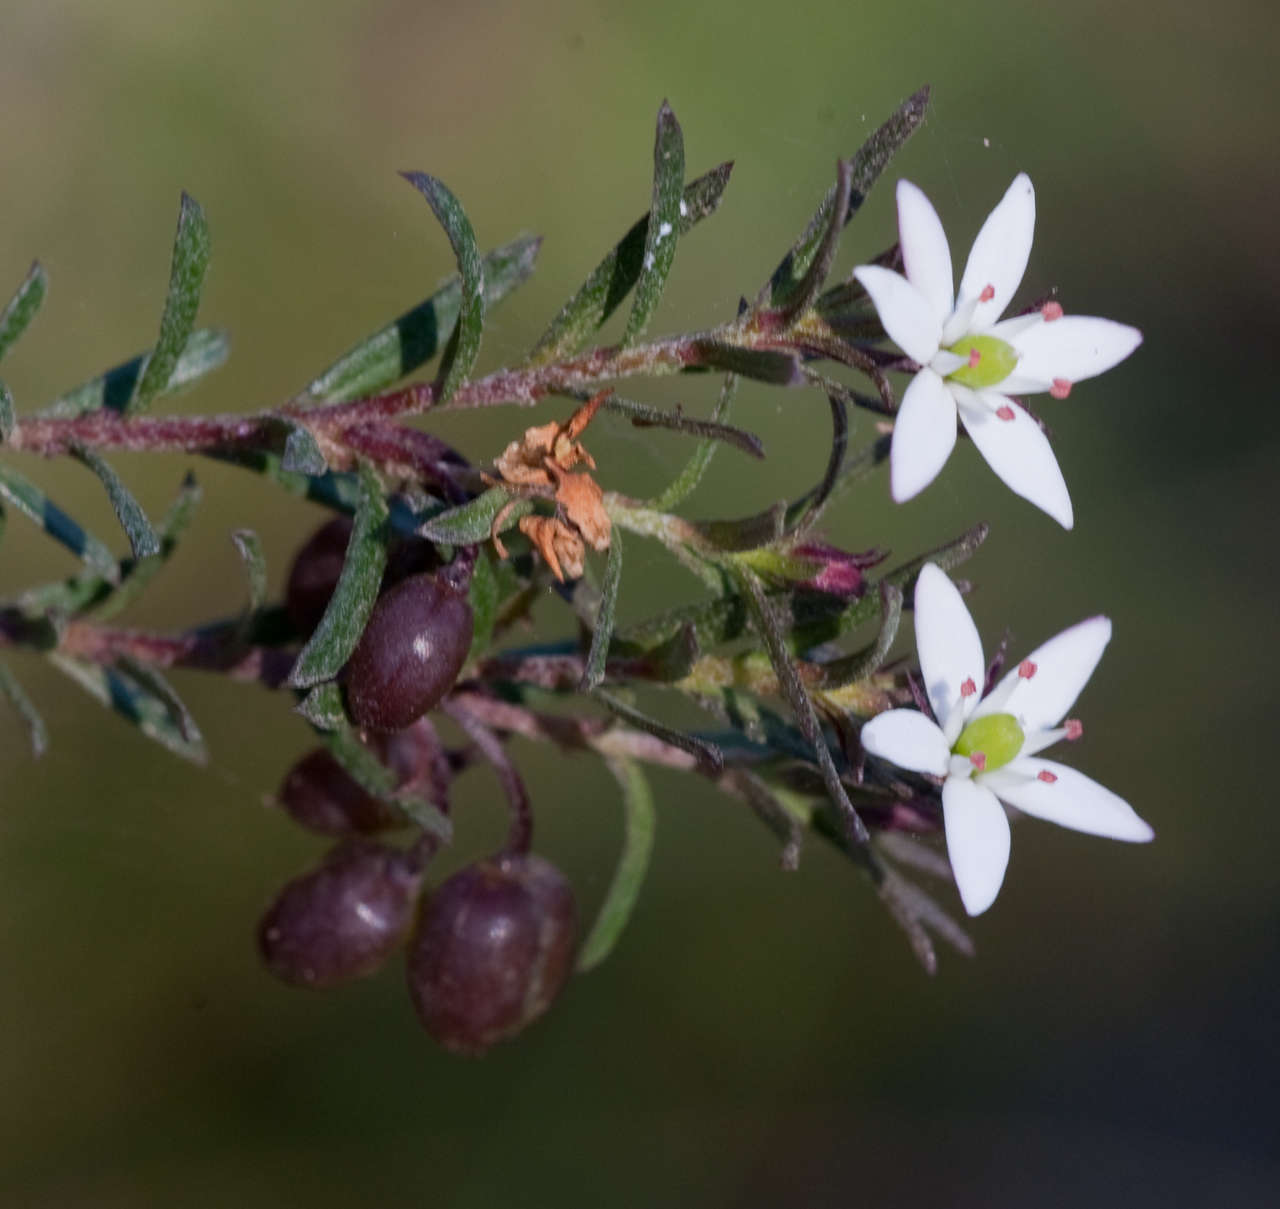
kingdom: Plantae
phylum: Tracheophyta
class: Magnoliopsida
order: Apiales
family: Pittosporaceae
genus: Rhytidosporum
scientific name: Rhytidosporum procumbens
